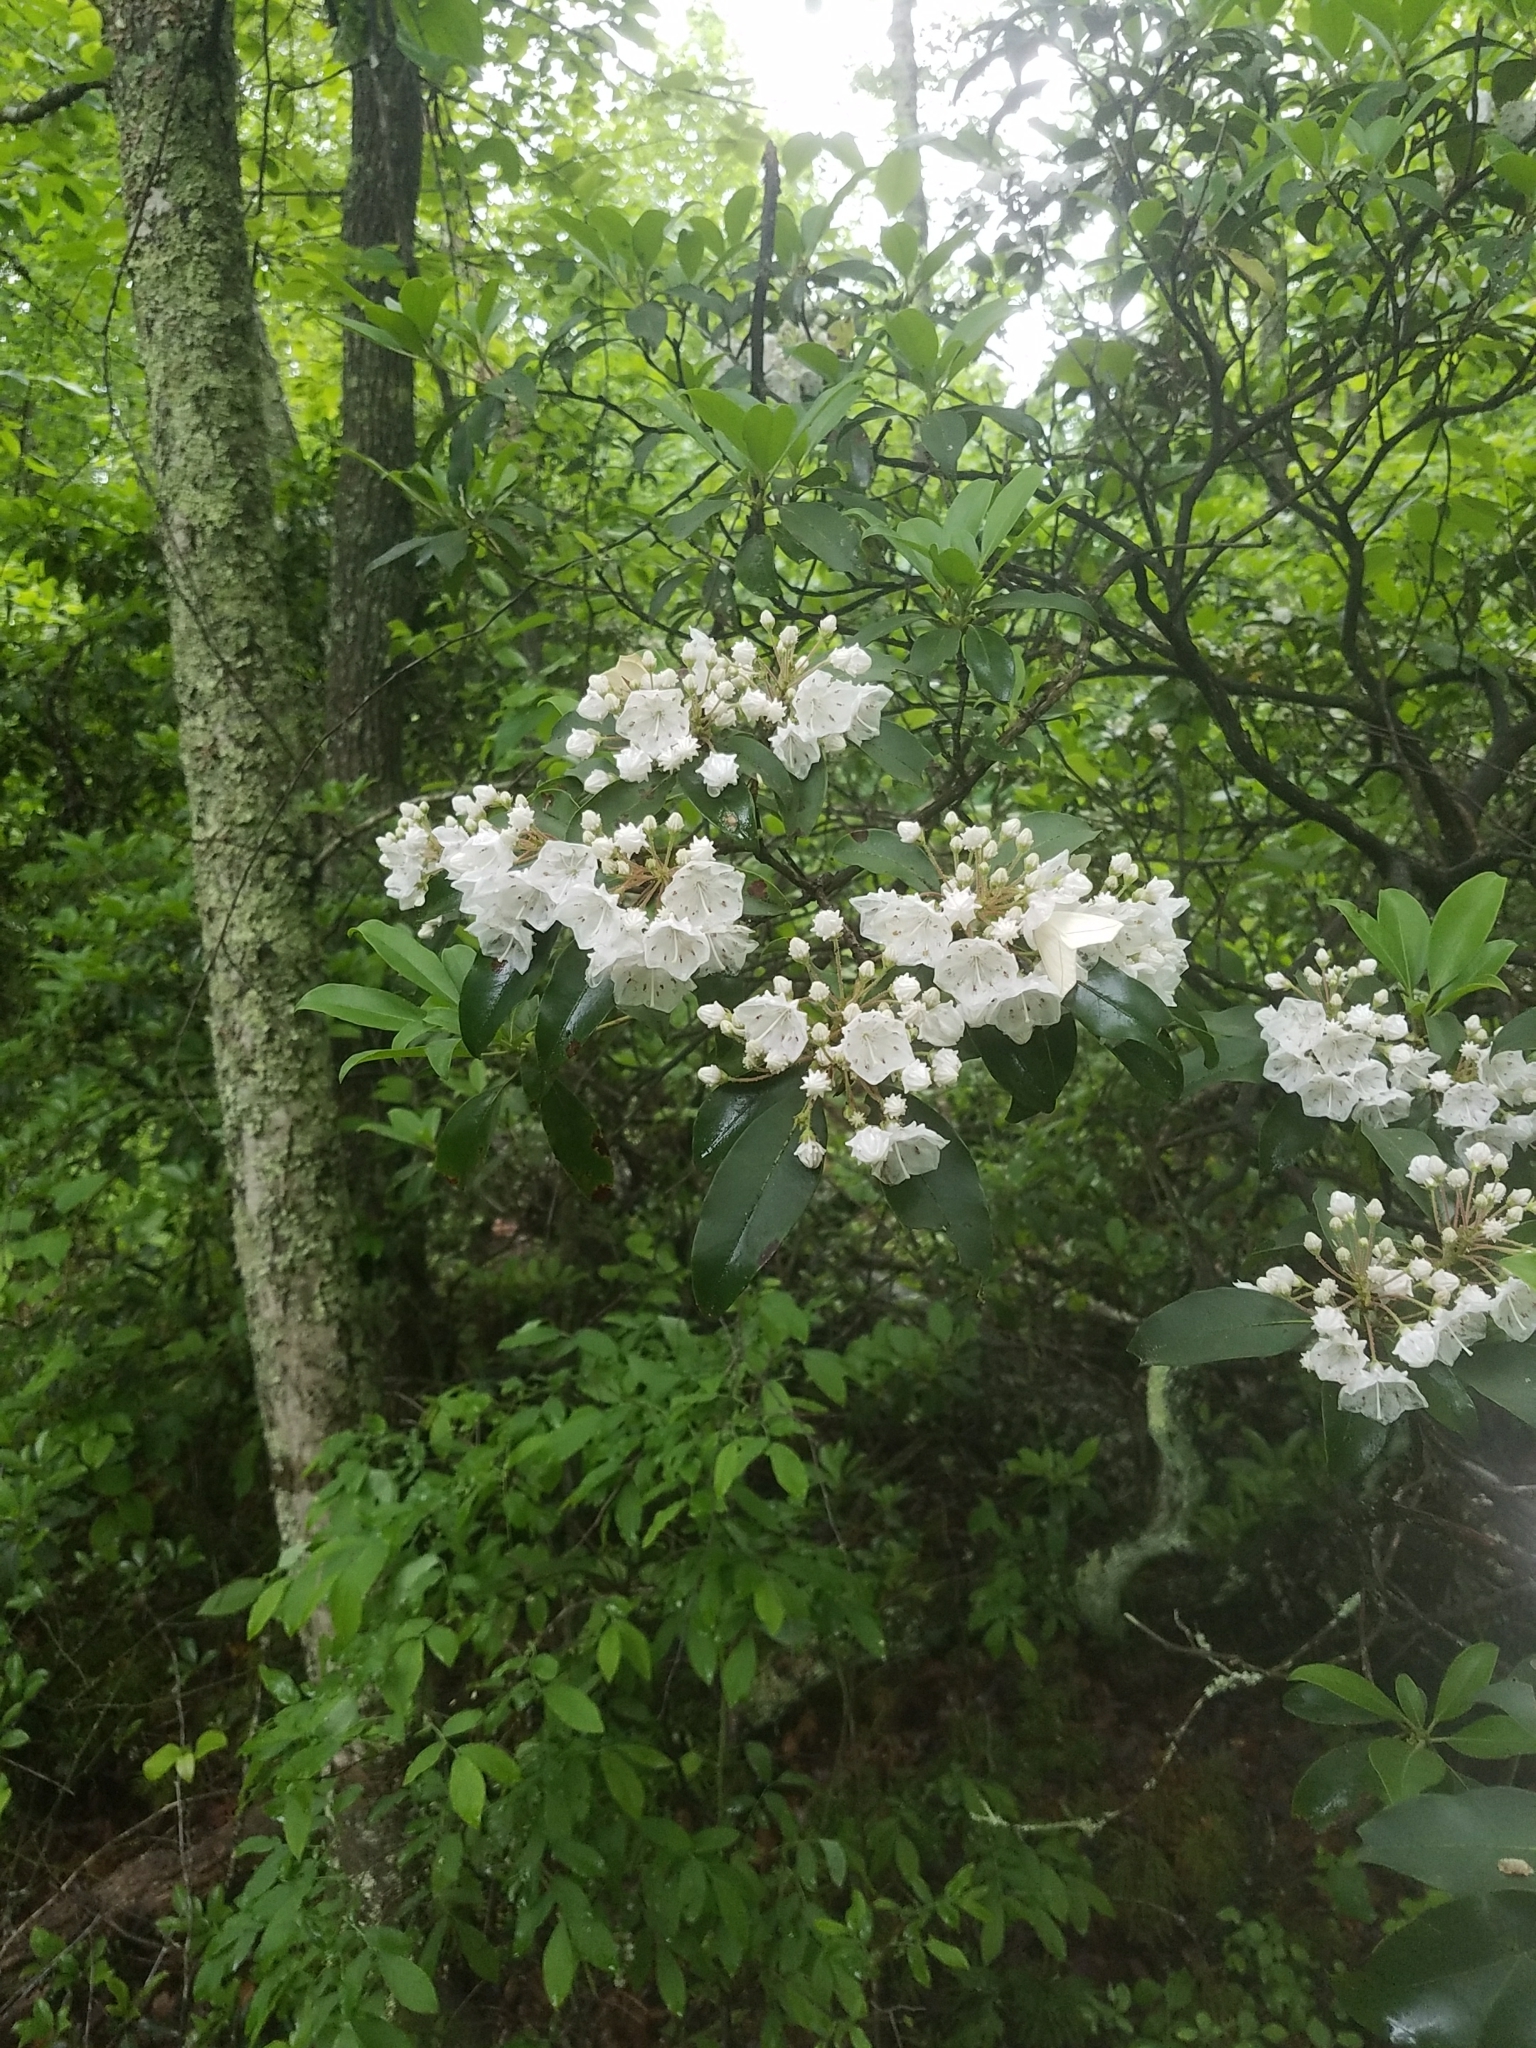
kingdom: Plantae
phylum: Tracheophyta
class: Magnoliopsida
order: Ericales
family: Ericaceae
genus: Kalmia
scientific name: Kalmia latifolia
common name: Mountain-laurel
